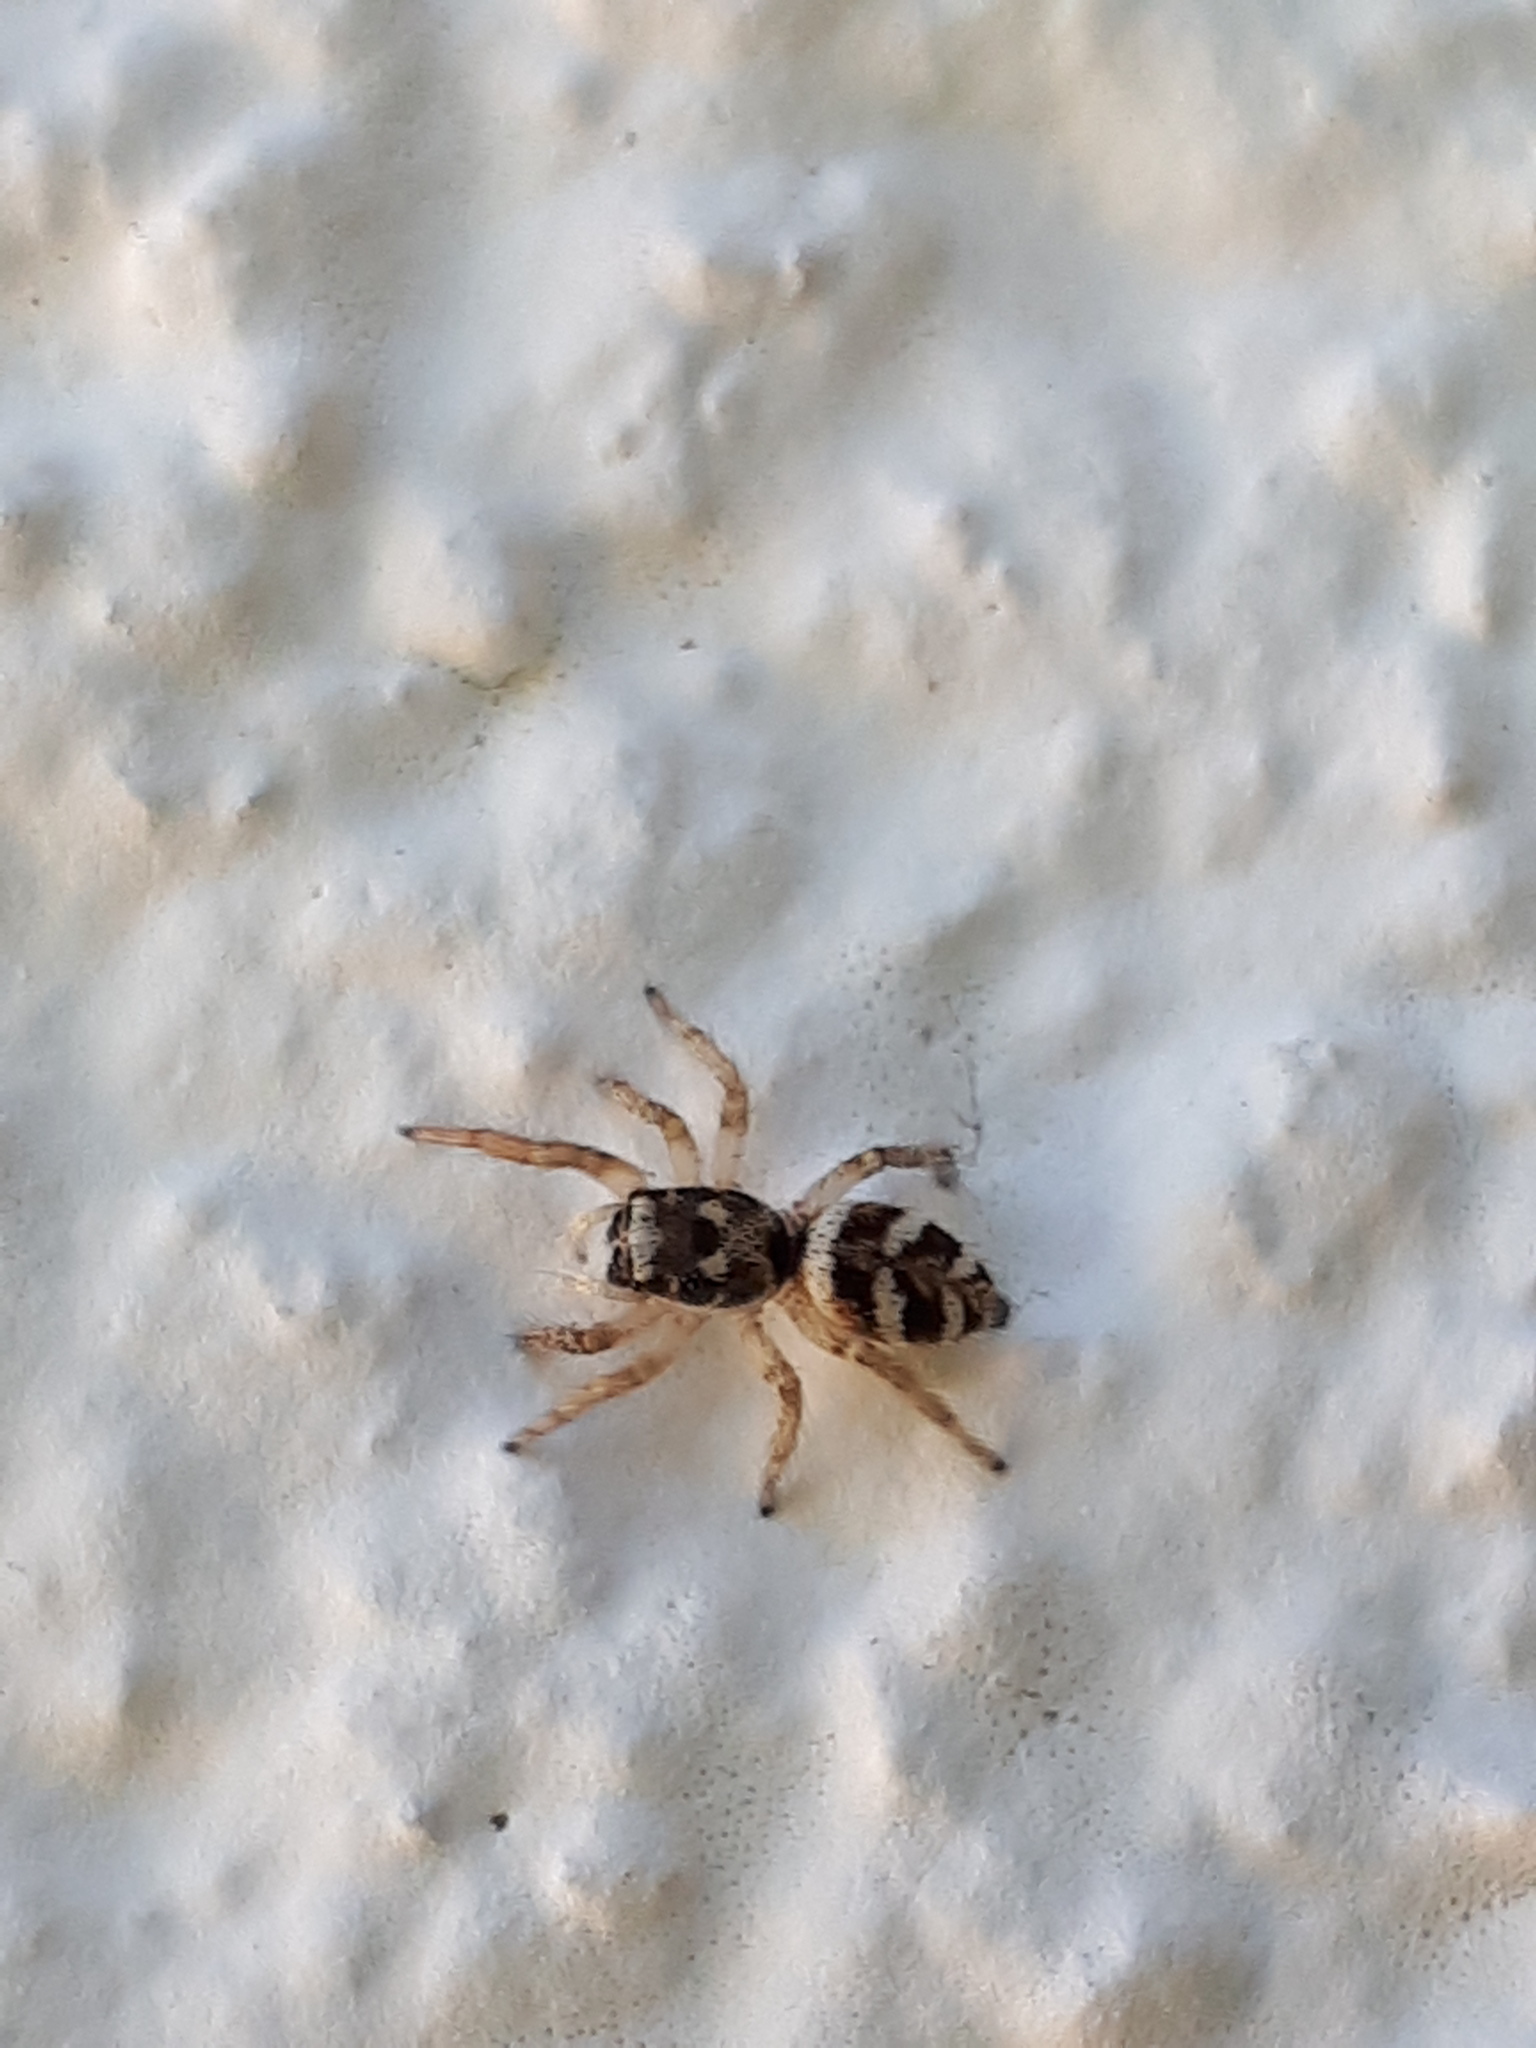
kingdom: Animalia
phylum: Arthropoda
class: Arachnida
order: Araneae
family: Salticidae
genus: Salticus
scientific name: Salticus scenicus
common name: Zebra jumper
